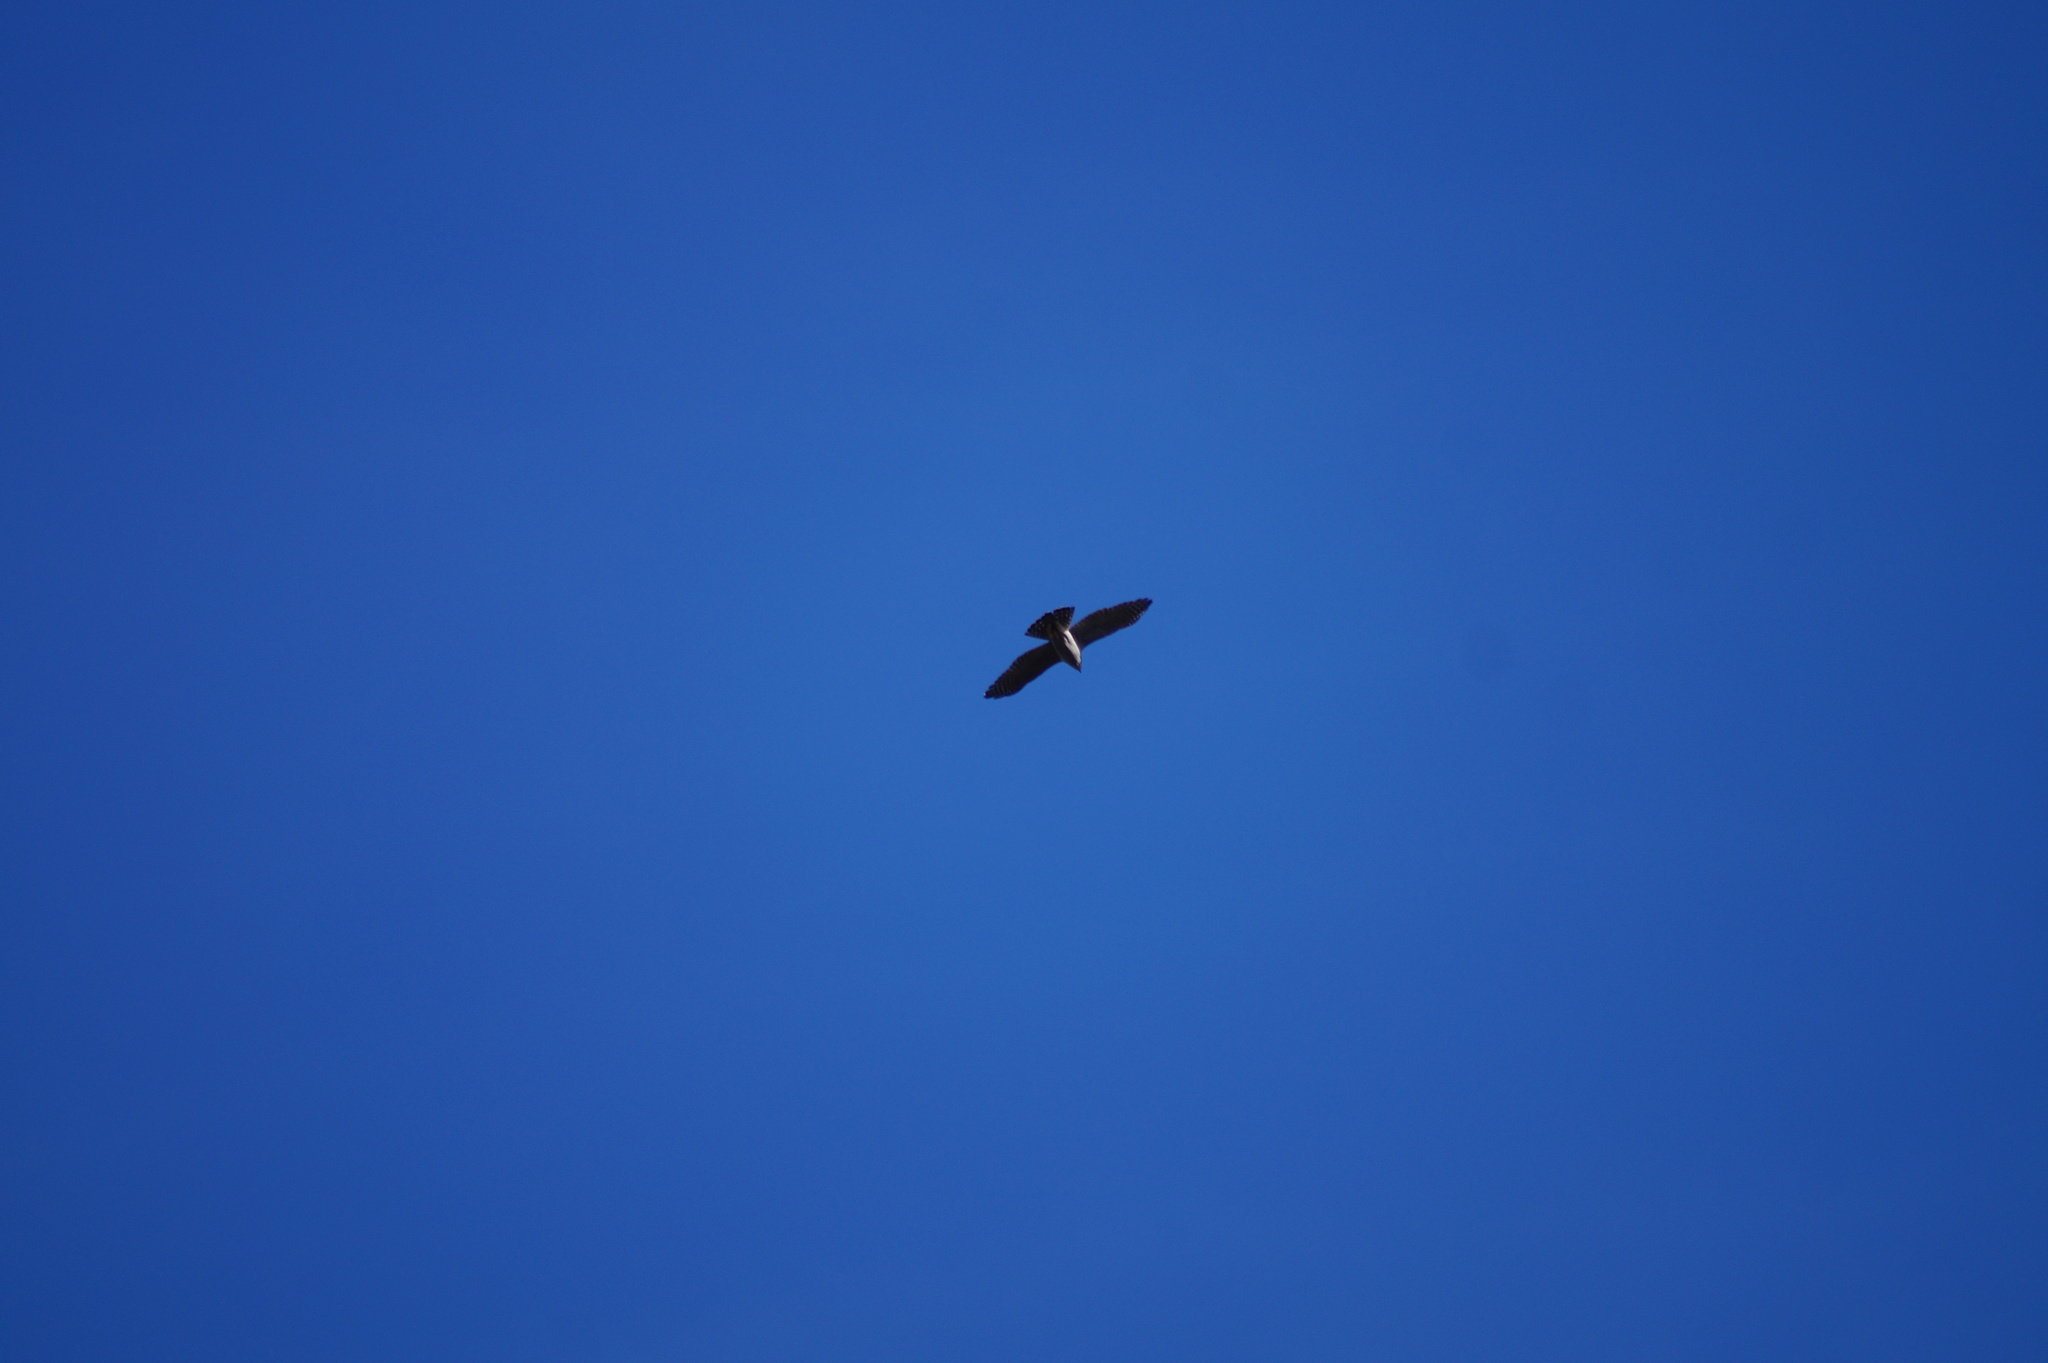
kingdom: Animalia
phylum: Chordata
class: Aves
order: Accipitriformes
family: Accipitridae
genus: Accipiter
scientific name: Accipiter gentilis
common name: Northern goshawk
